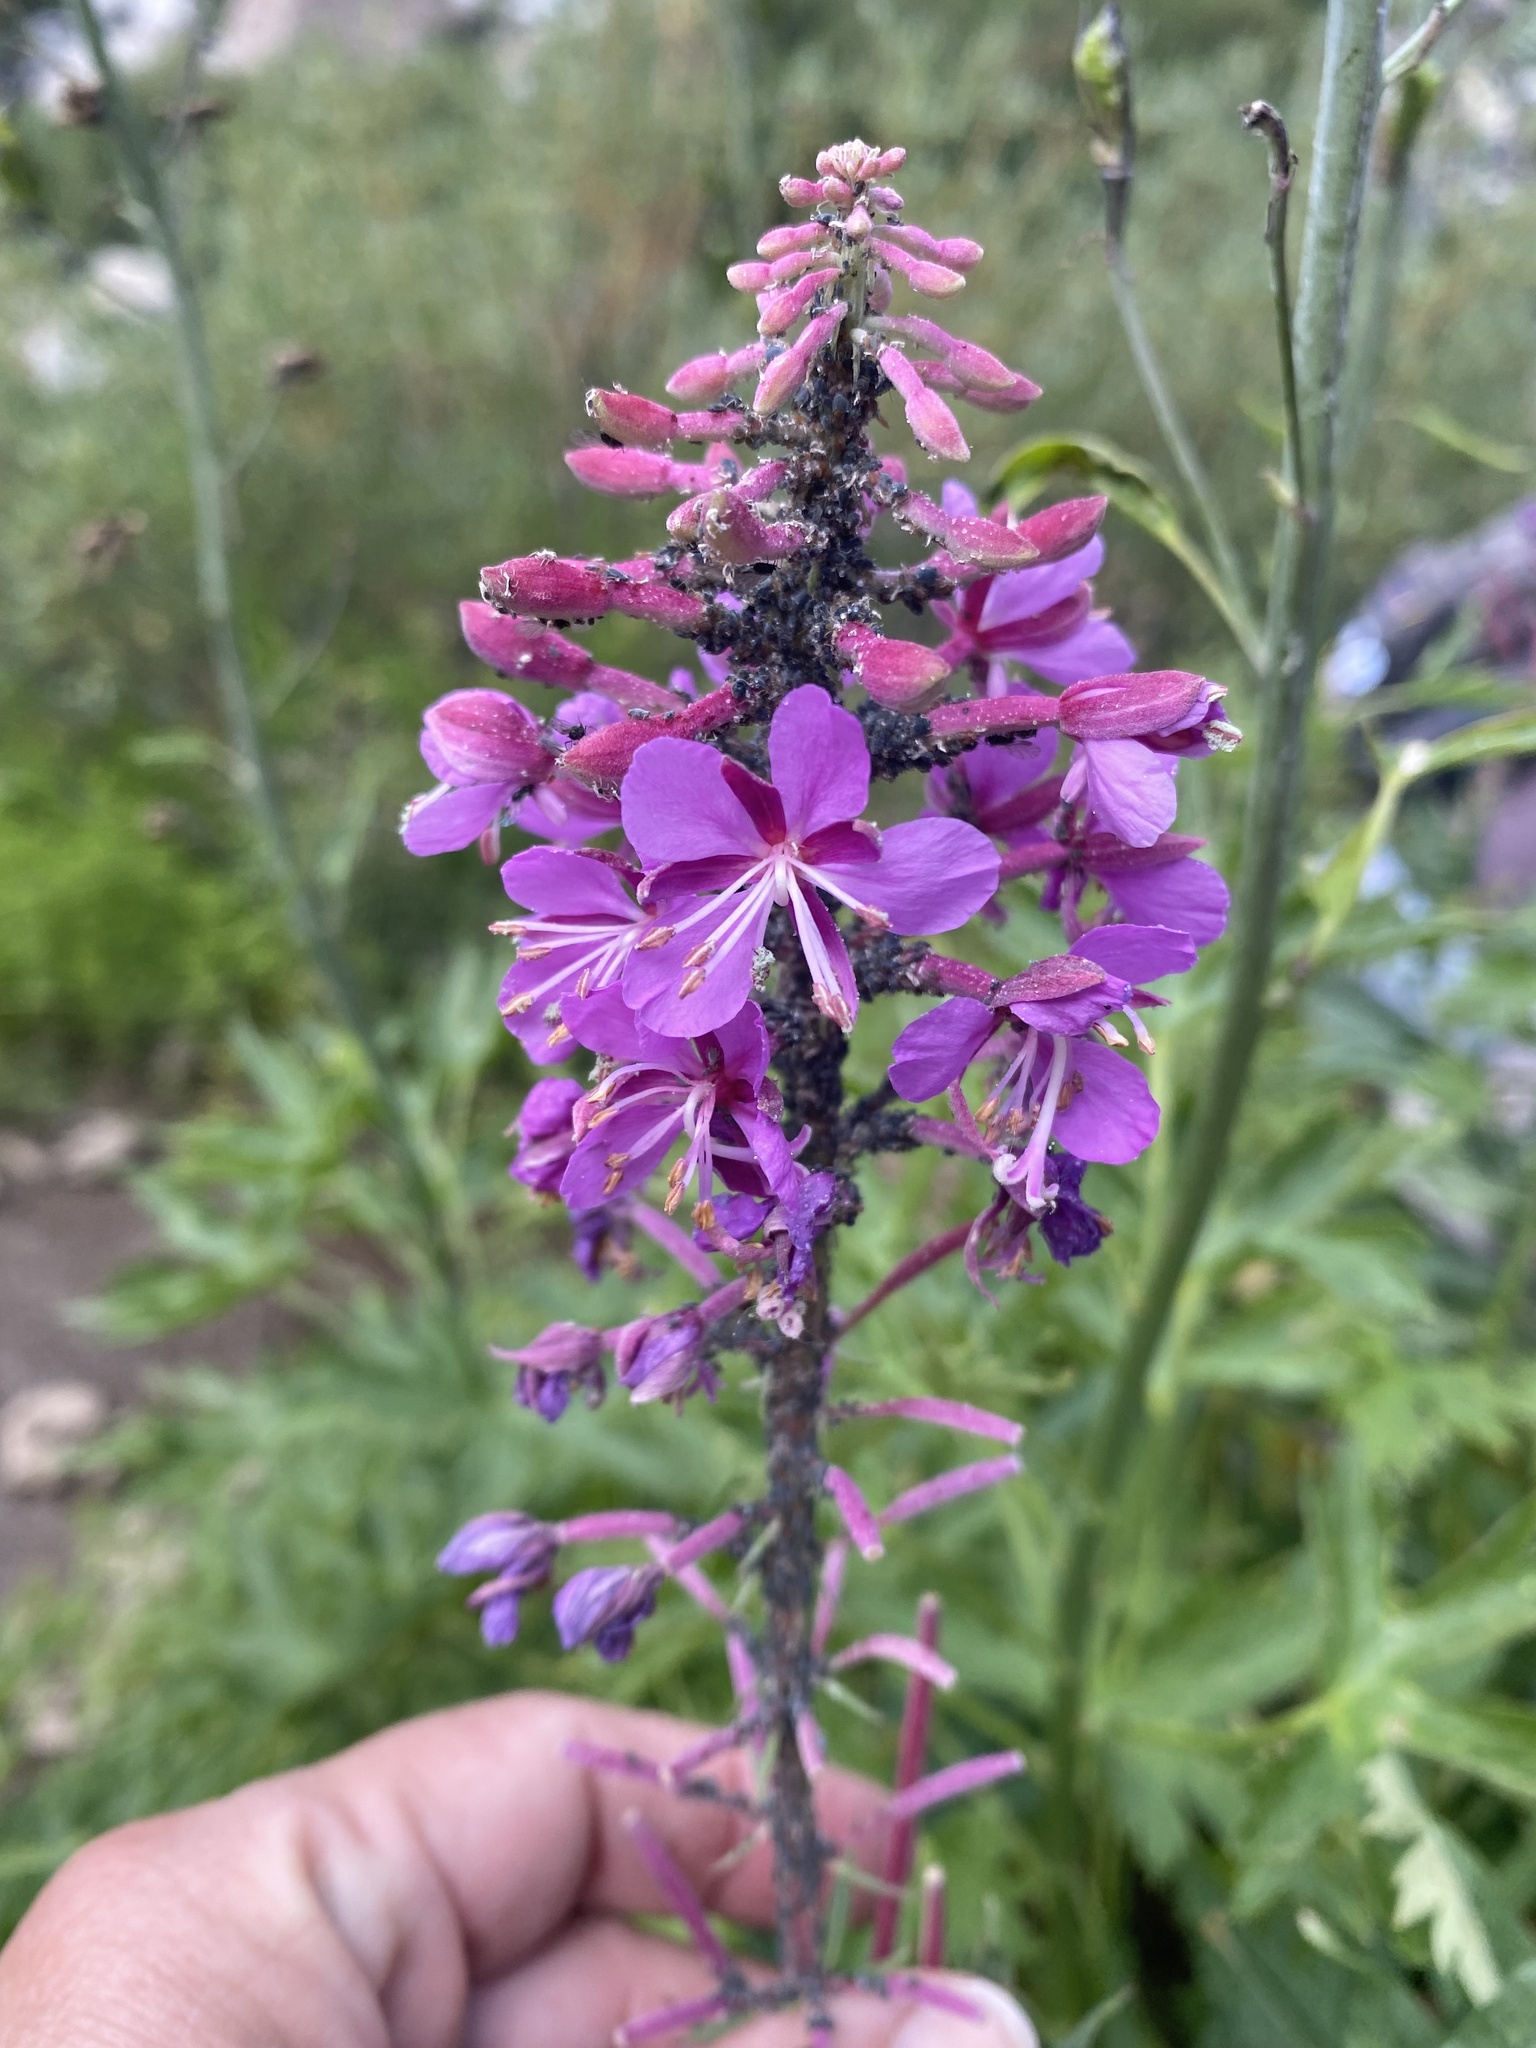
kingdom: Plantae
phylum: Tracheophyta
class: Magnoliopsida
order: Myrtales
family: Onagraceae
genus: Chamaenerion
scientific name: Chamaenerion angustifolium
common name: Fireweed
